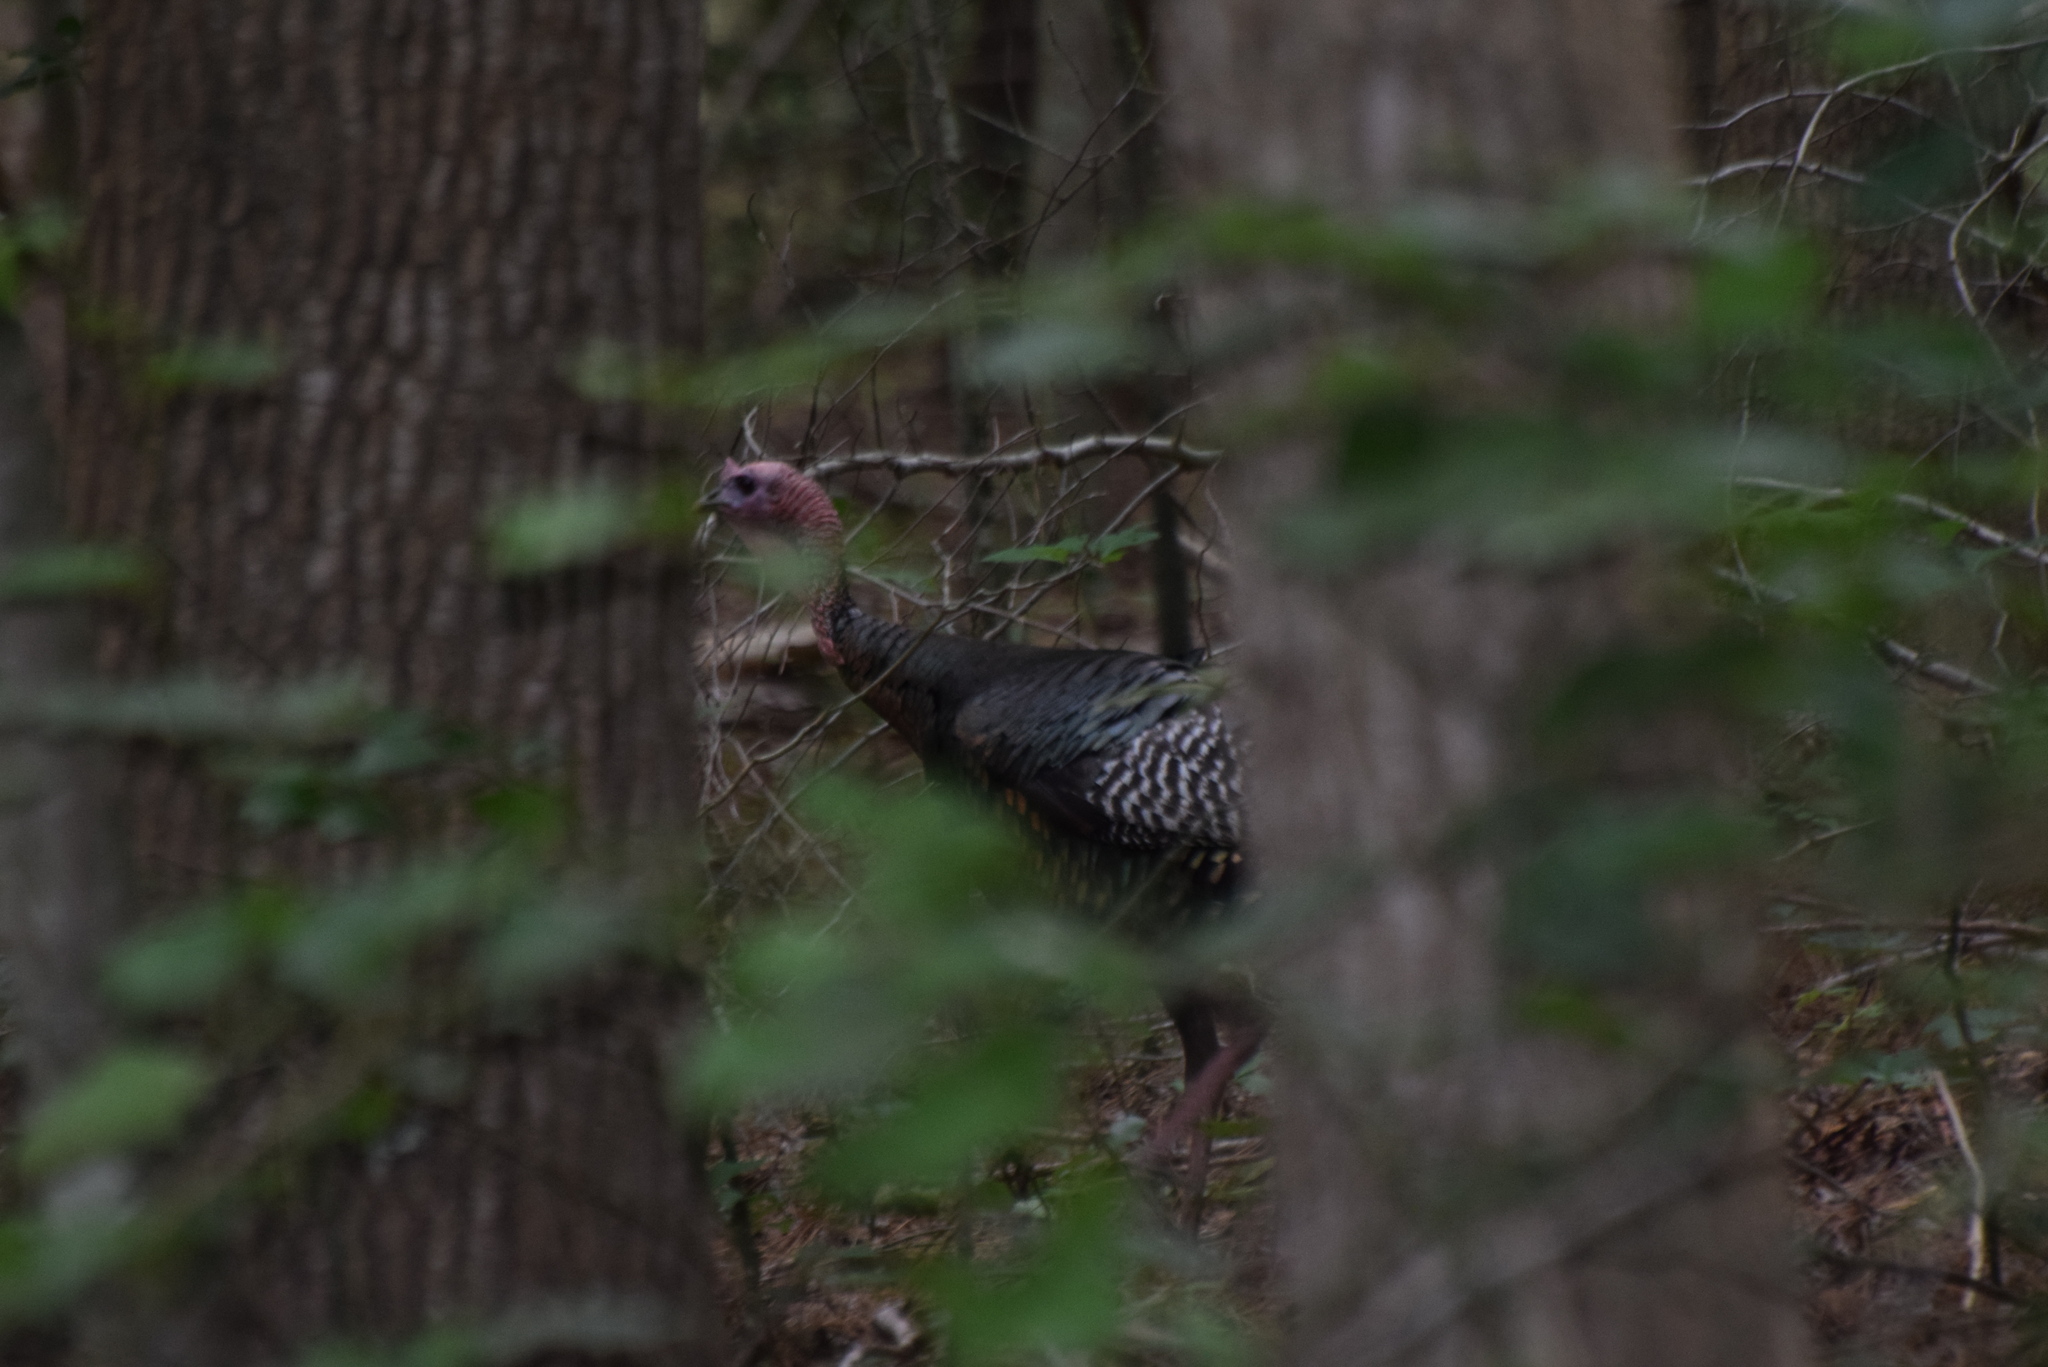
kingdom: Animalia
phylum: Chordata
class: Aves
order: Galliformes
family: Phasianidae
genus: Meleagris
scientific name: Meleagris gallopavo
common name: Wild turkey
